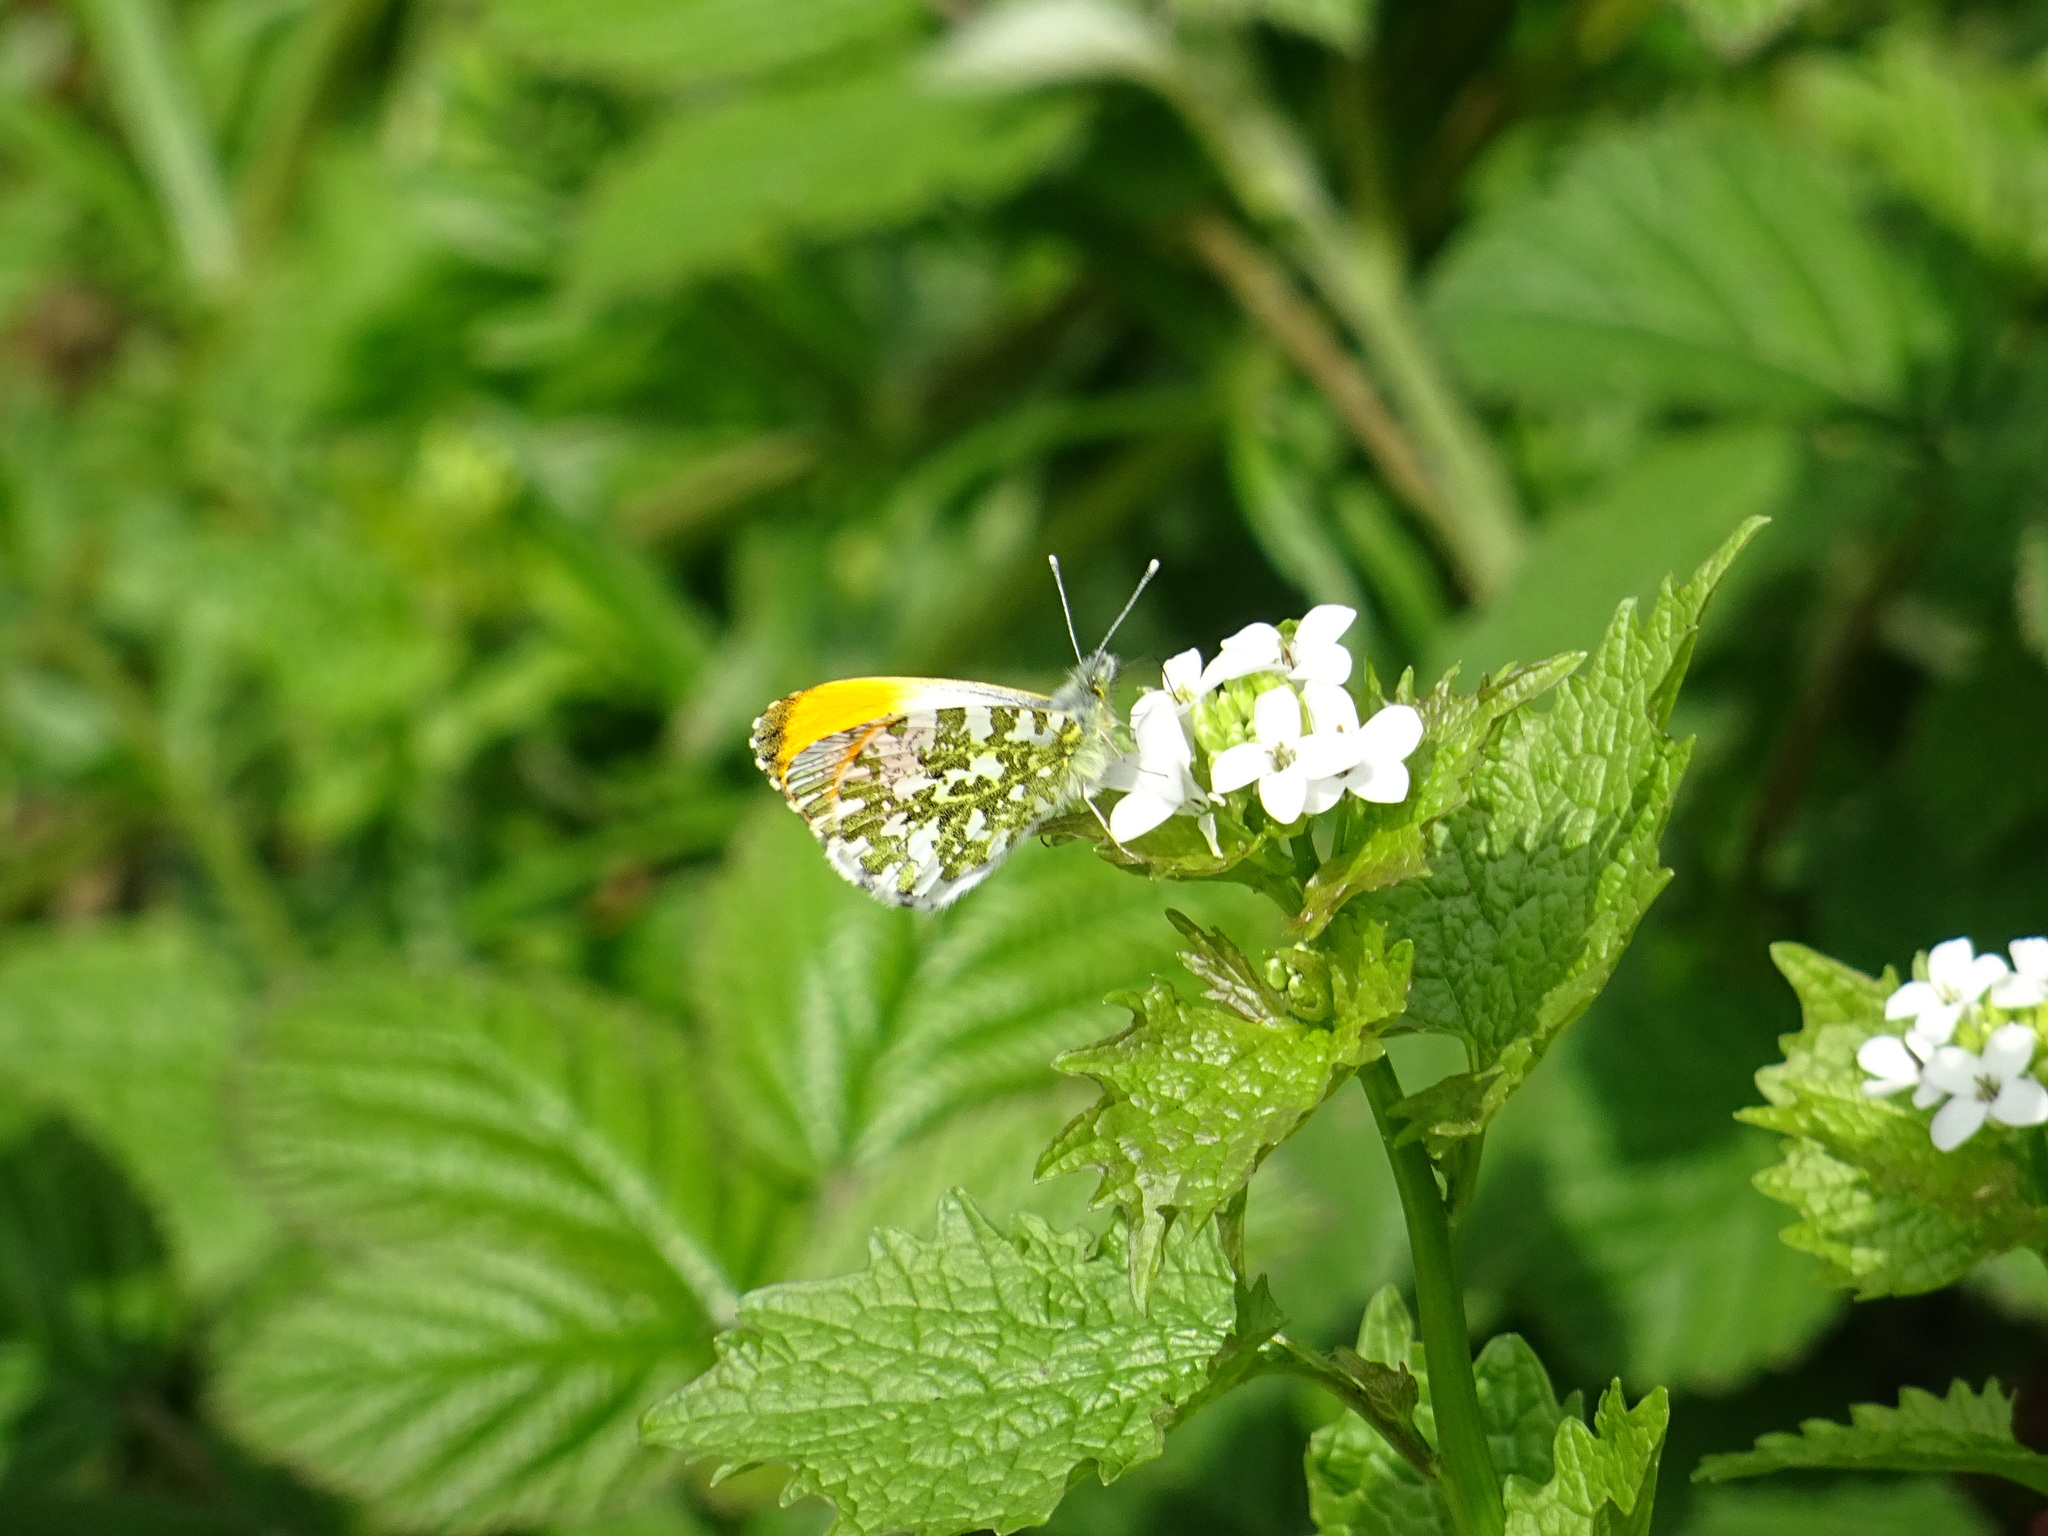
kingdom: Animalia
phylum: Arthropoda
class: Insecta
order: Lepidoptera
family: Pieridae
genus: Anthocharis
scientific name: Anthocharis cardamines
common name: Orange-tip
